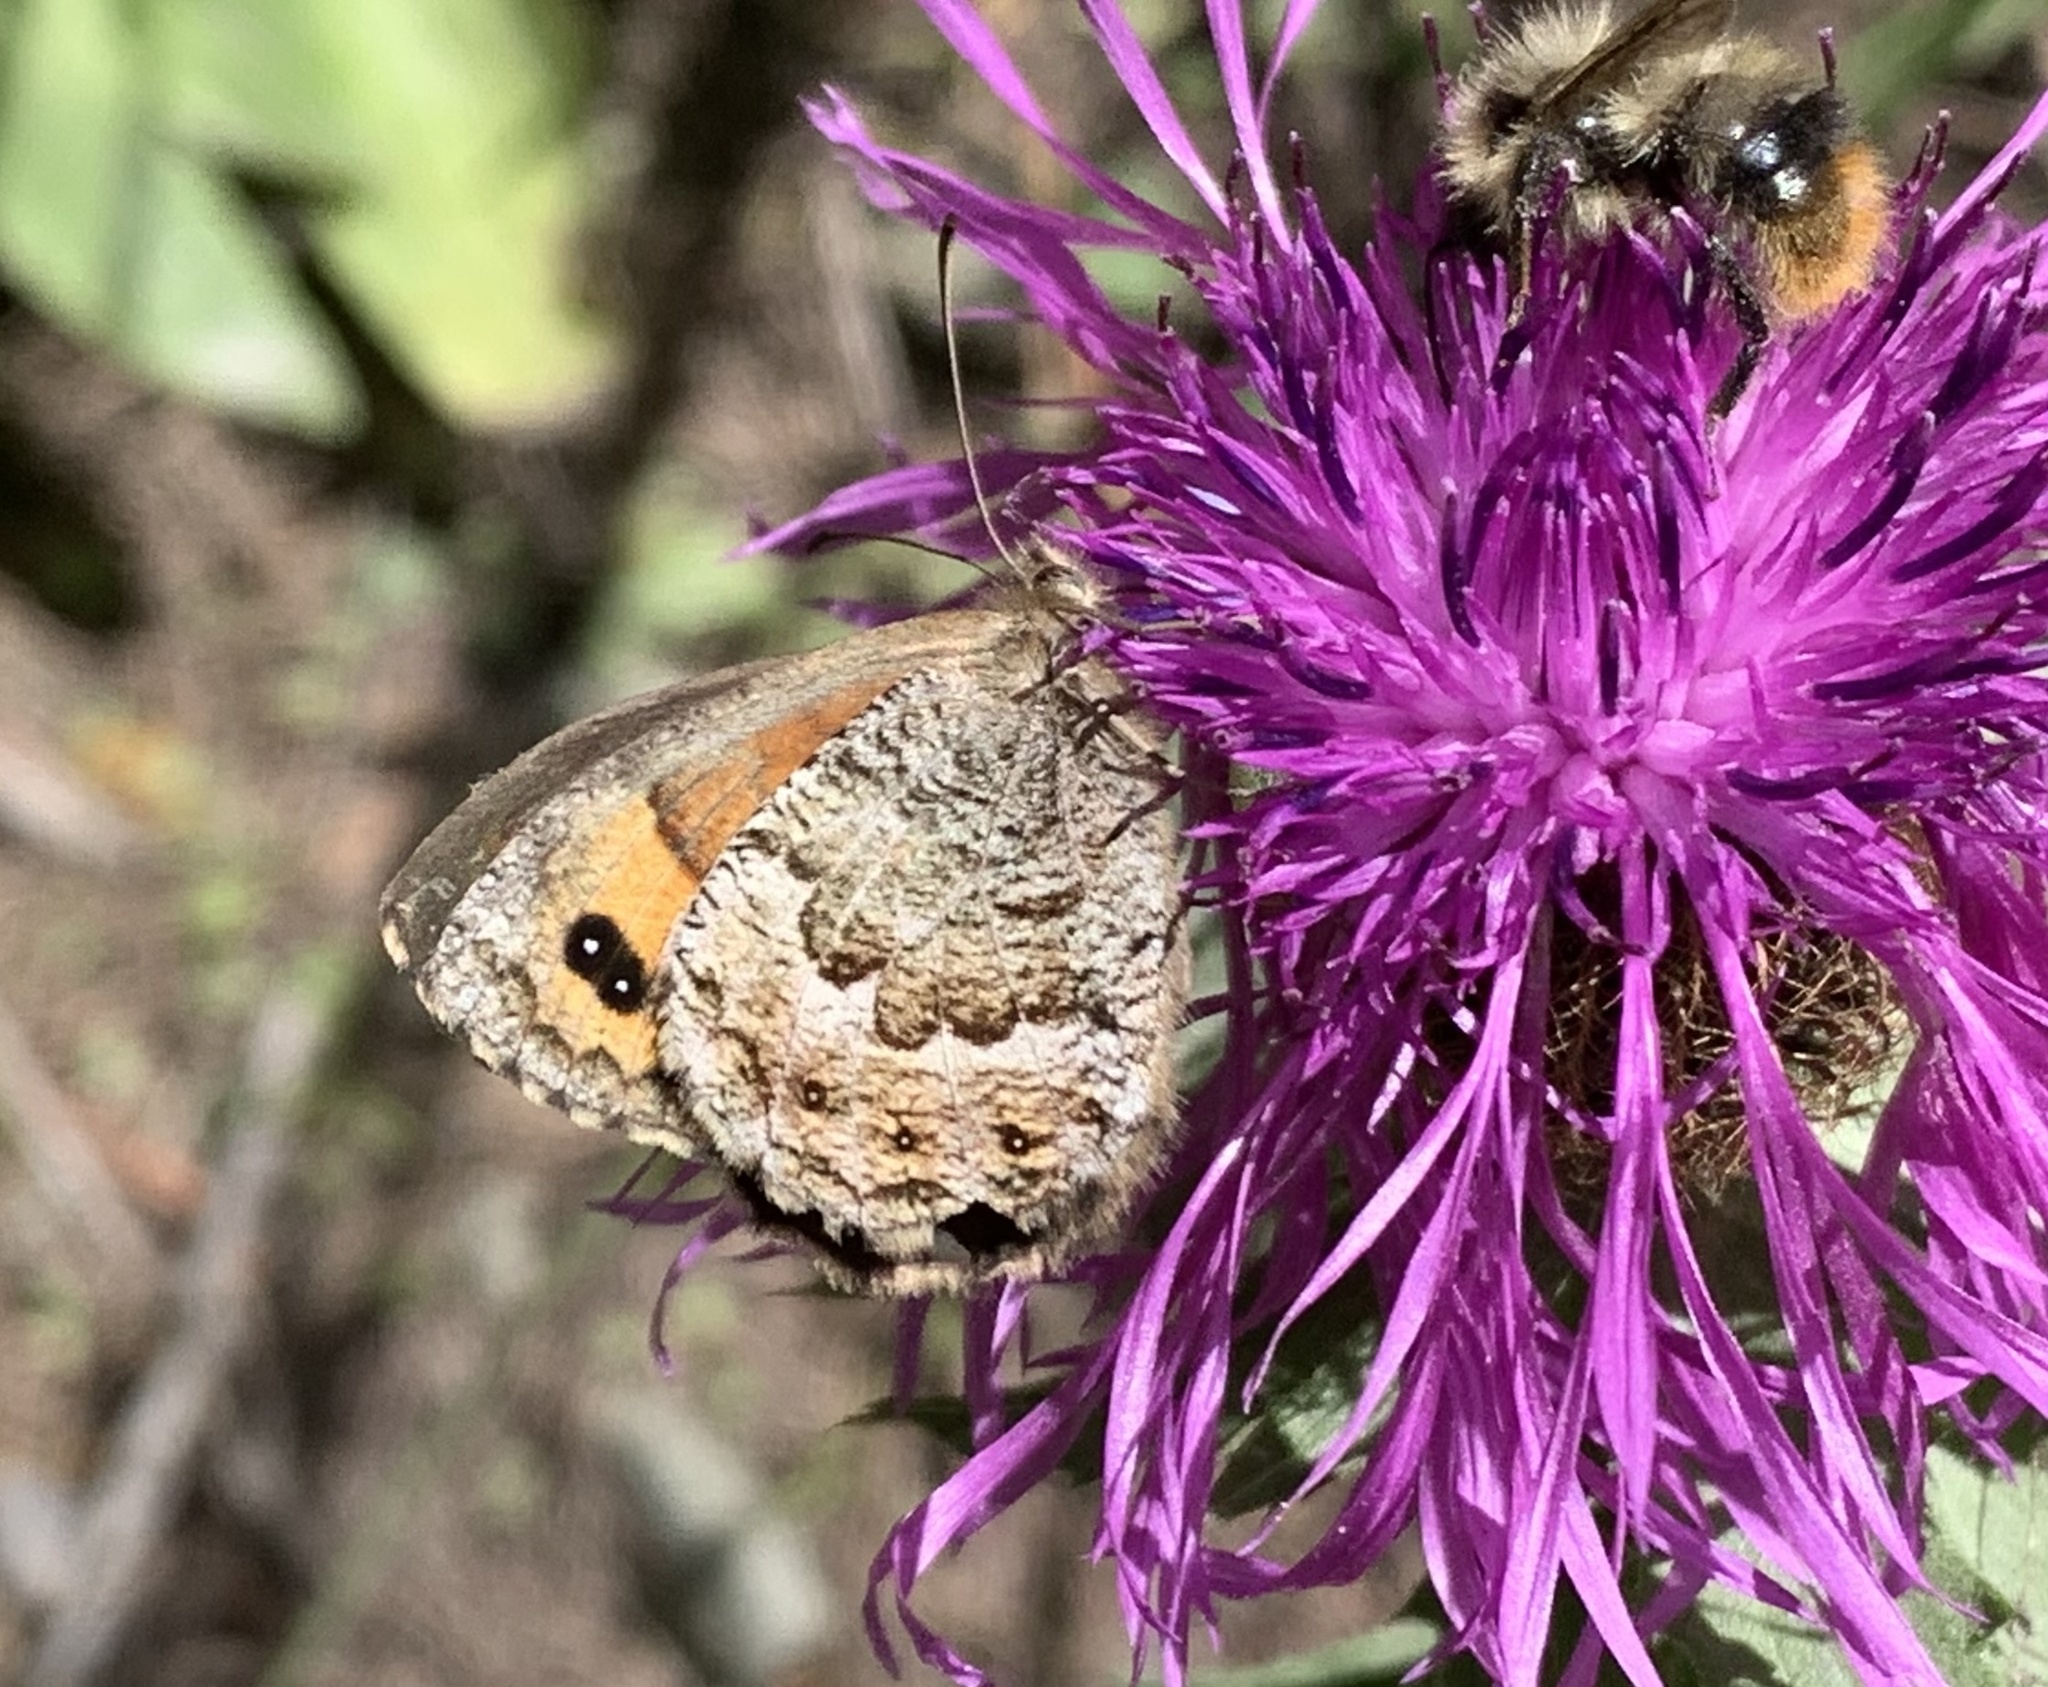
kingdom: Animalia
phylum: Arthropoda
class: Insecta
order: Lepidoptera
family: Nymphalidae
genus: Erebia
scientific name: Erebia montanus
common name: Marbled ringlet
